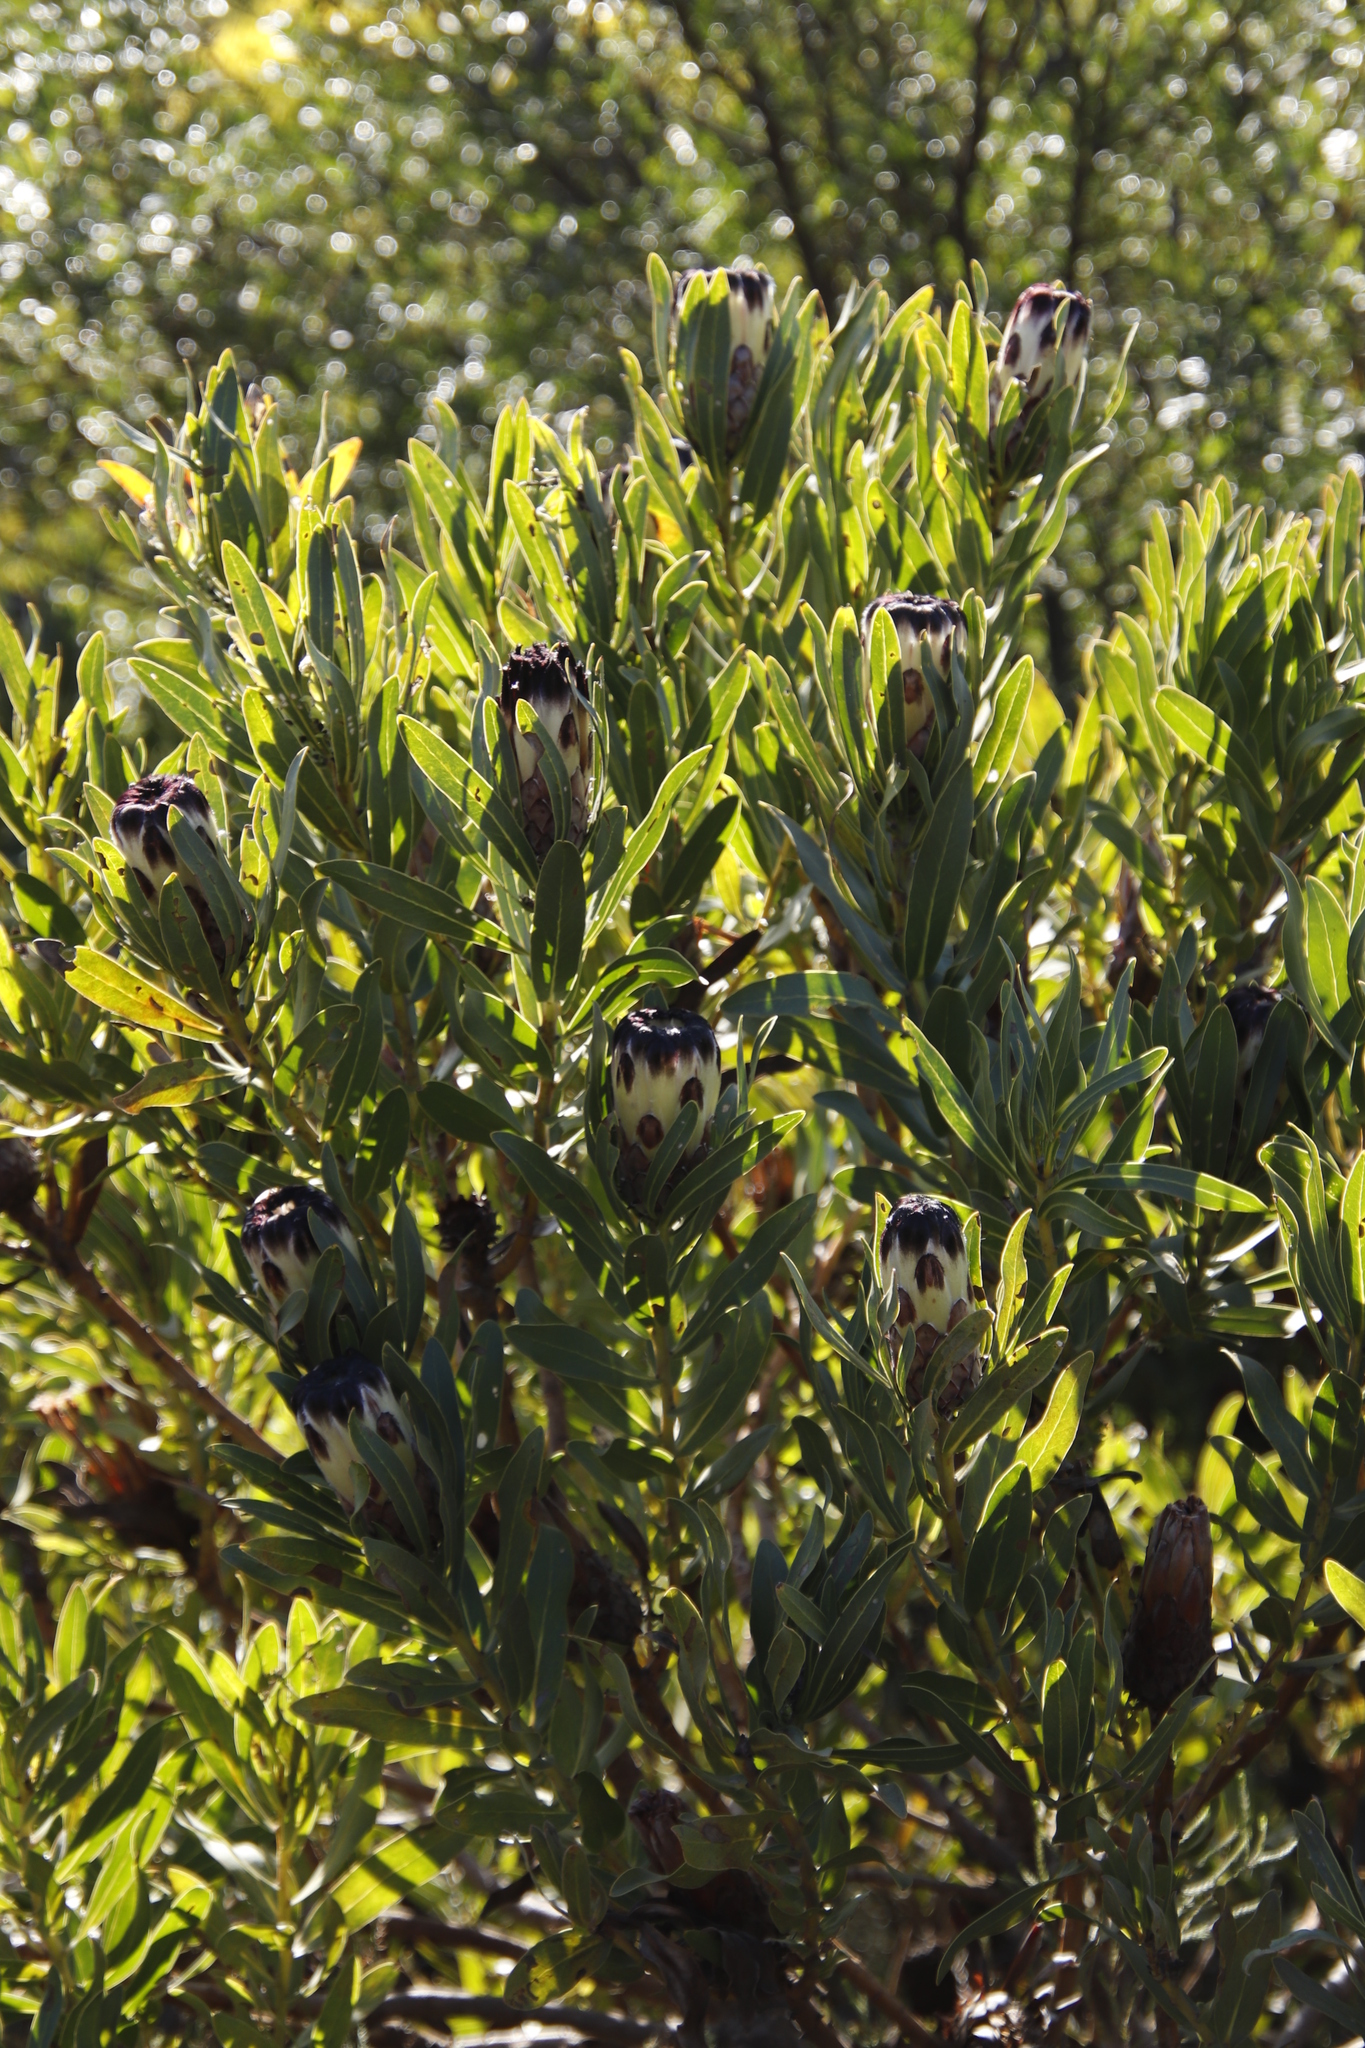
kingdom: Plantae
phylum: Tracheophyta
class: Magnoliopsida
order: Proteales
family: Proteaceae
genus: Protea
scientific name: Protea lepidocarpodendron
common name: Black-bearded protea
